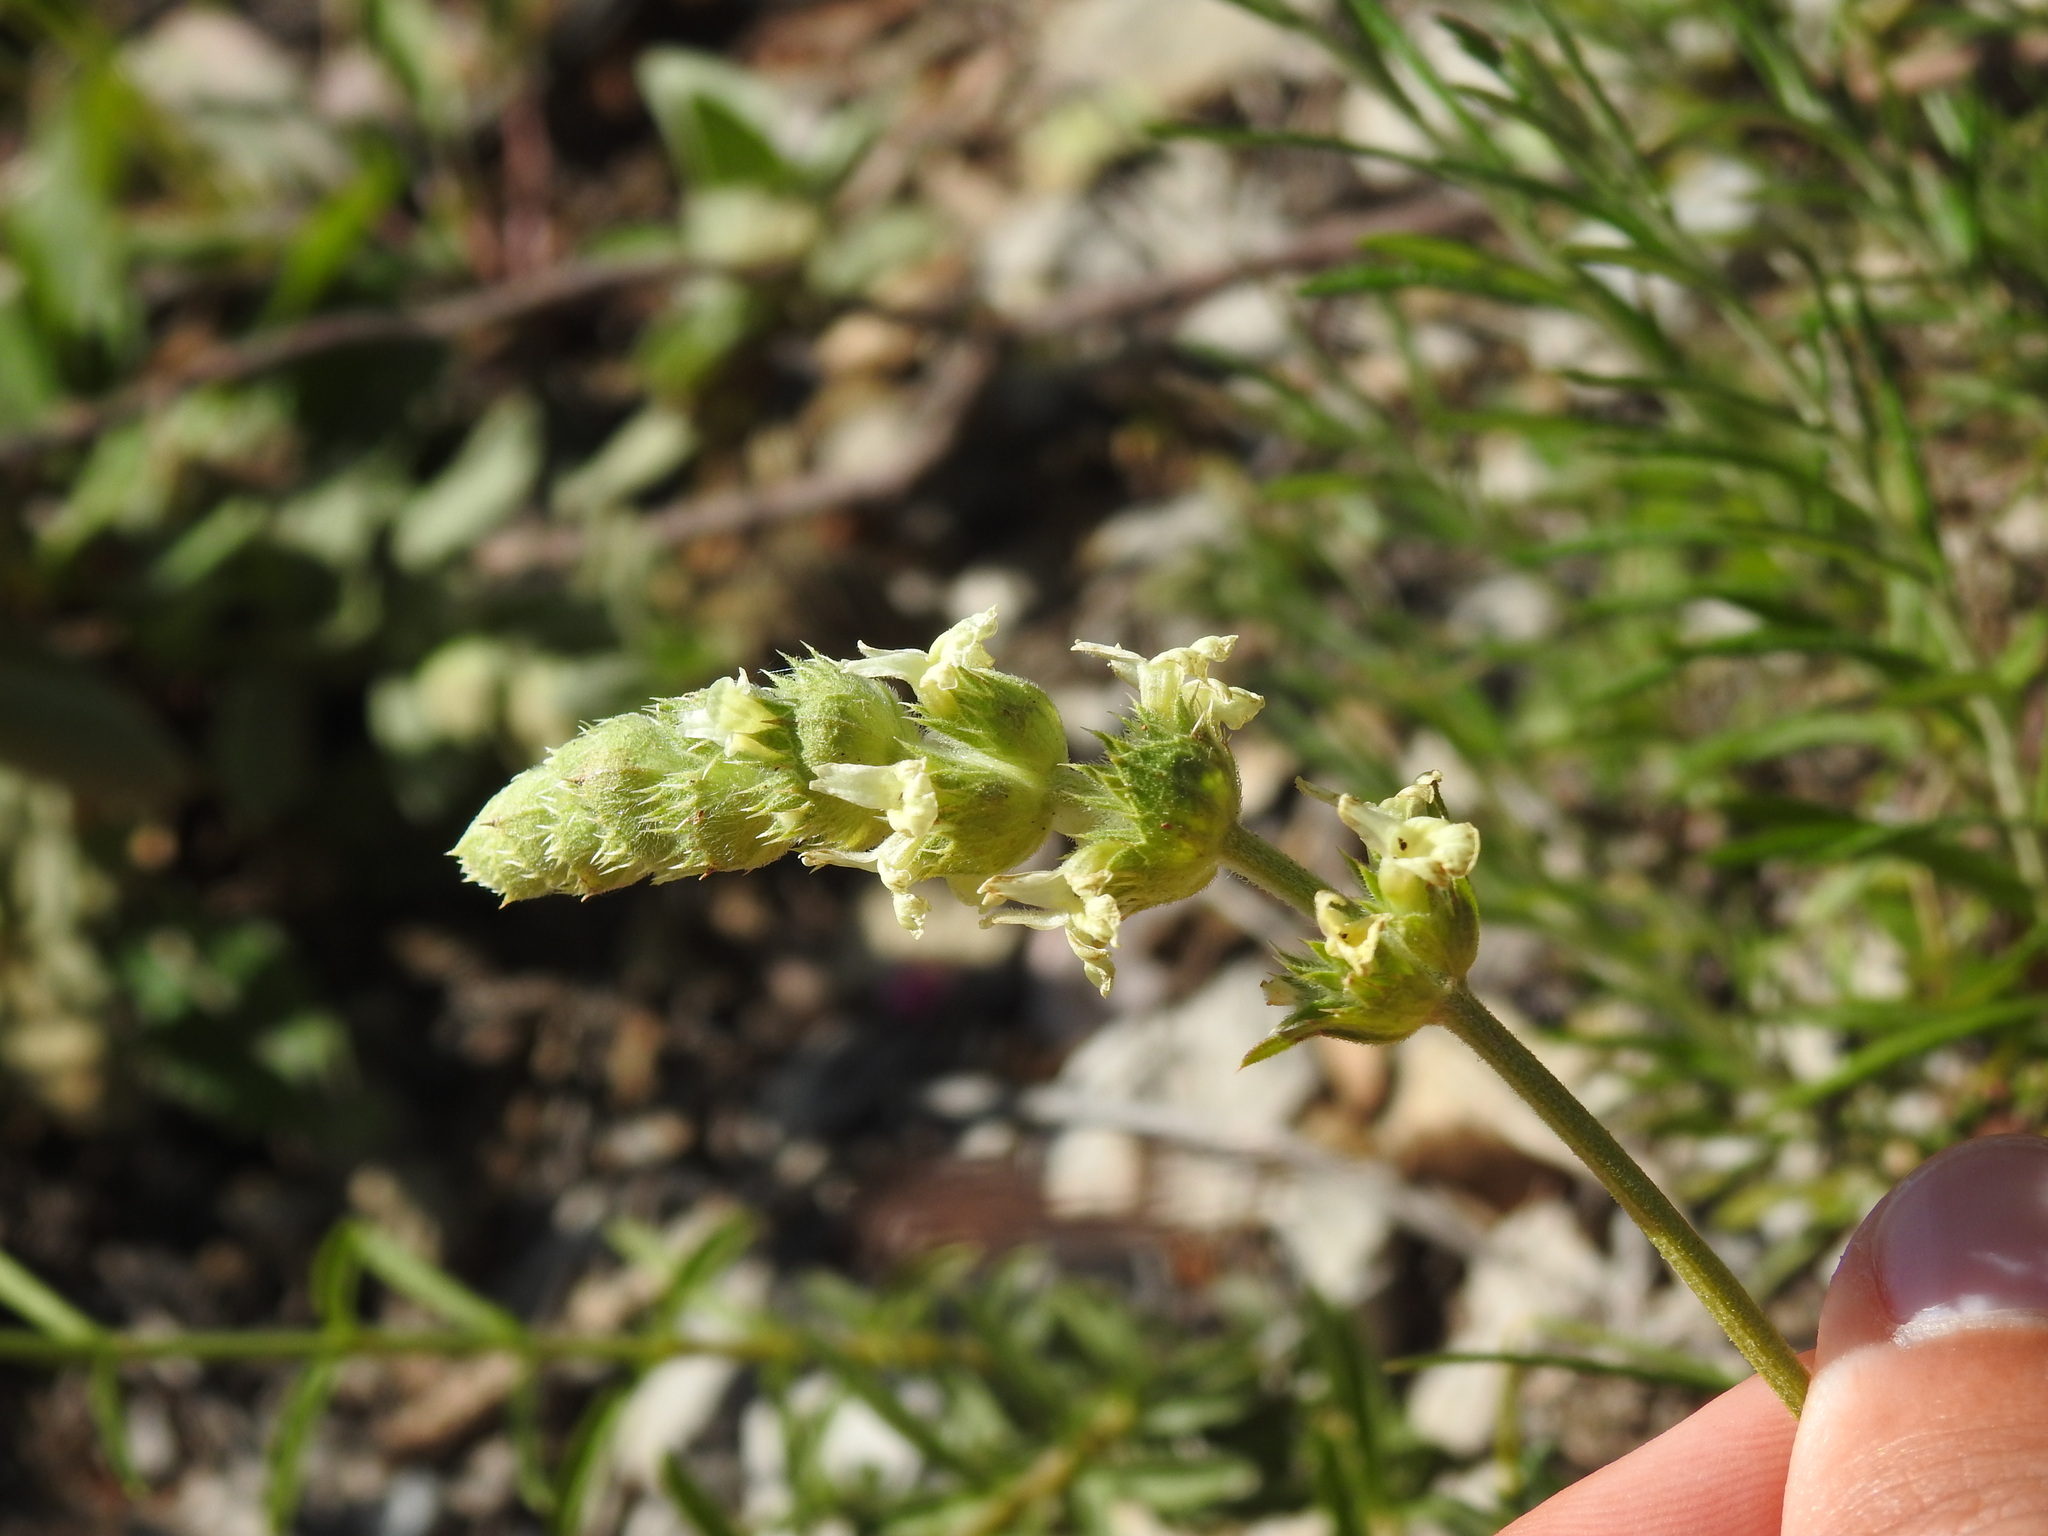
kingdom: Plantae
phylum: Tracheophyta
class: Magnoliopsida
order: Lamiales
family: Lamiaceae
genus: Sideritis
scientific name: Sideritis arborescens
